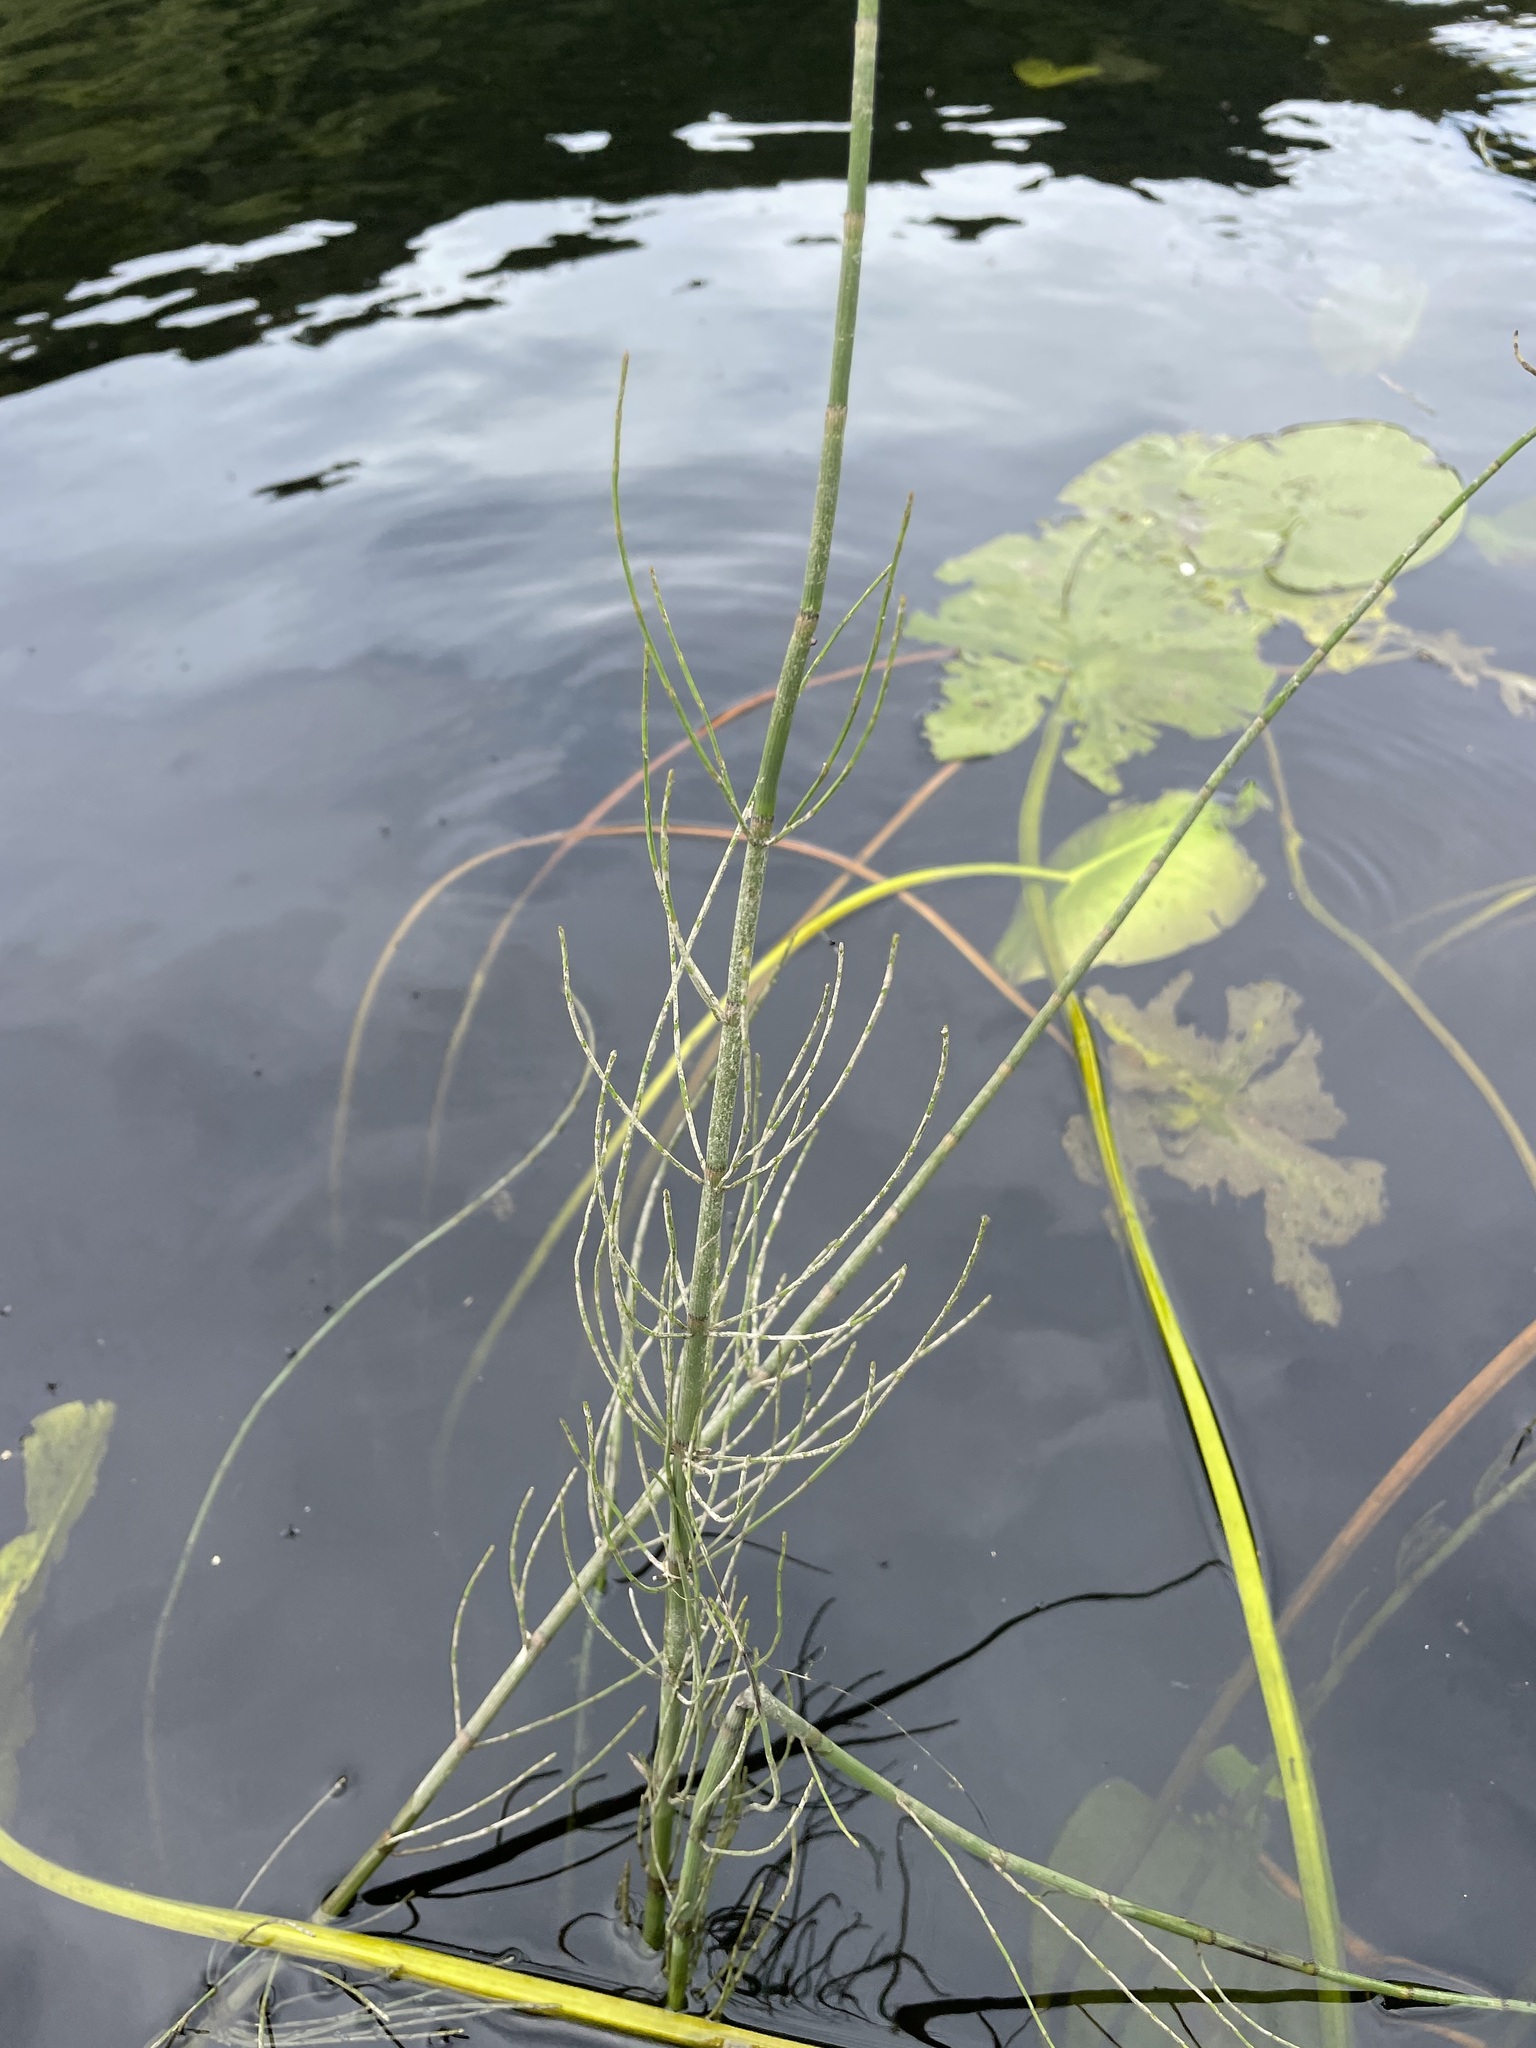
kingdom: Plantae
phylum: Tracheophyta
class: Polypodiopsida
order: Equisetales
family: Equisetaceae
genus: Equisetum
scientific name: Equisetum fluviatile
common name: Water horsetail
